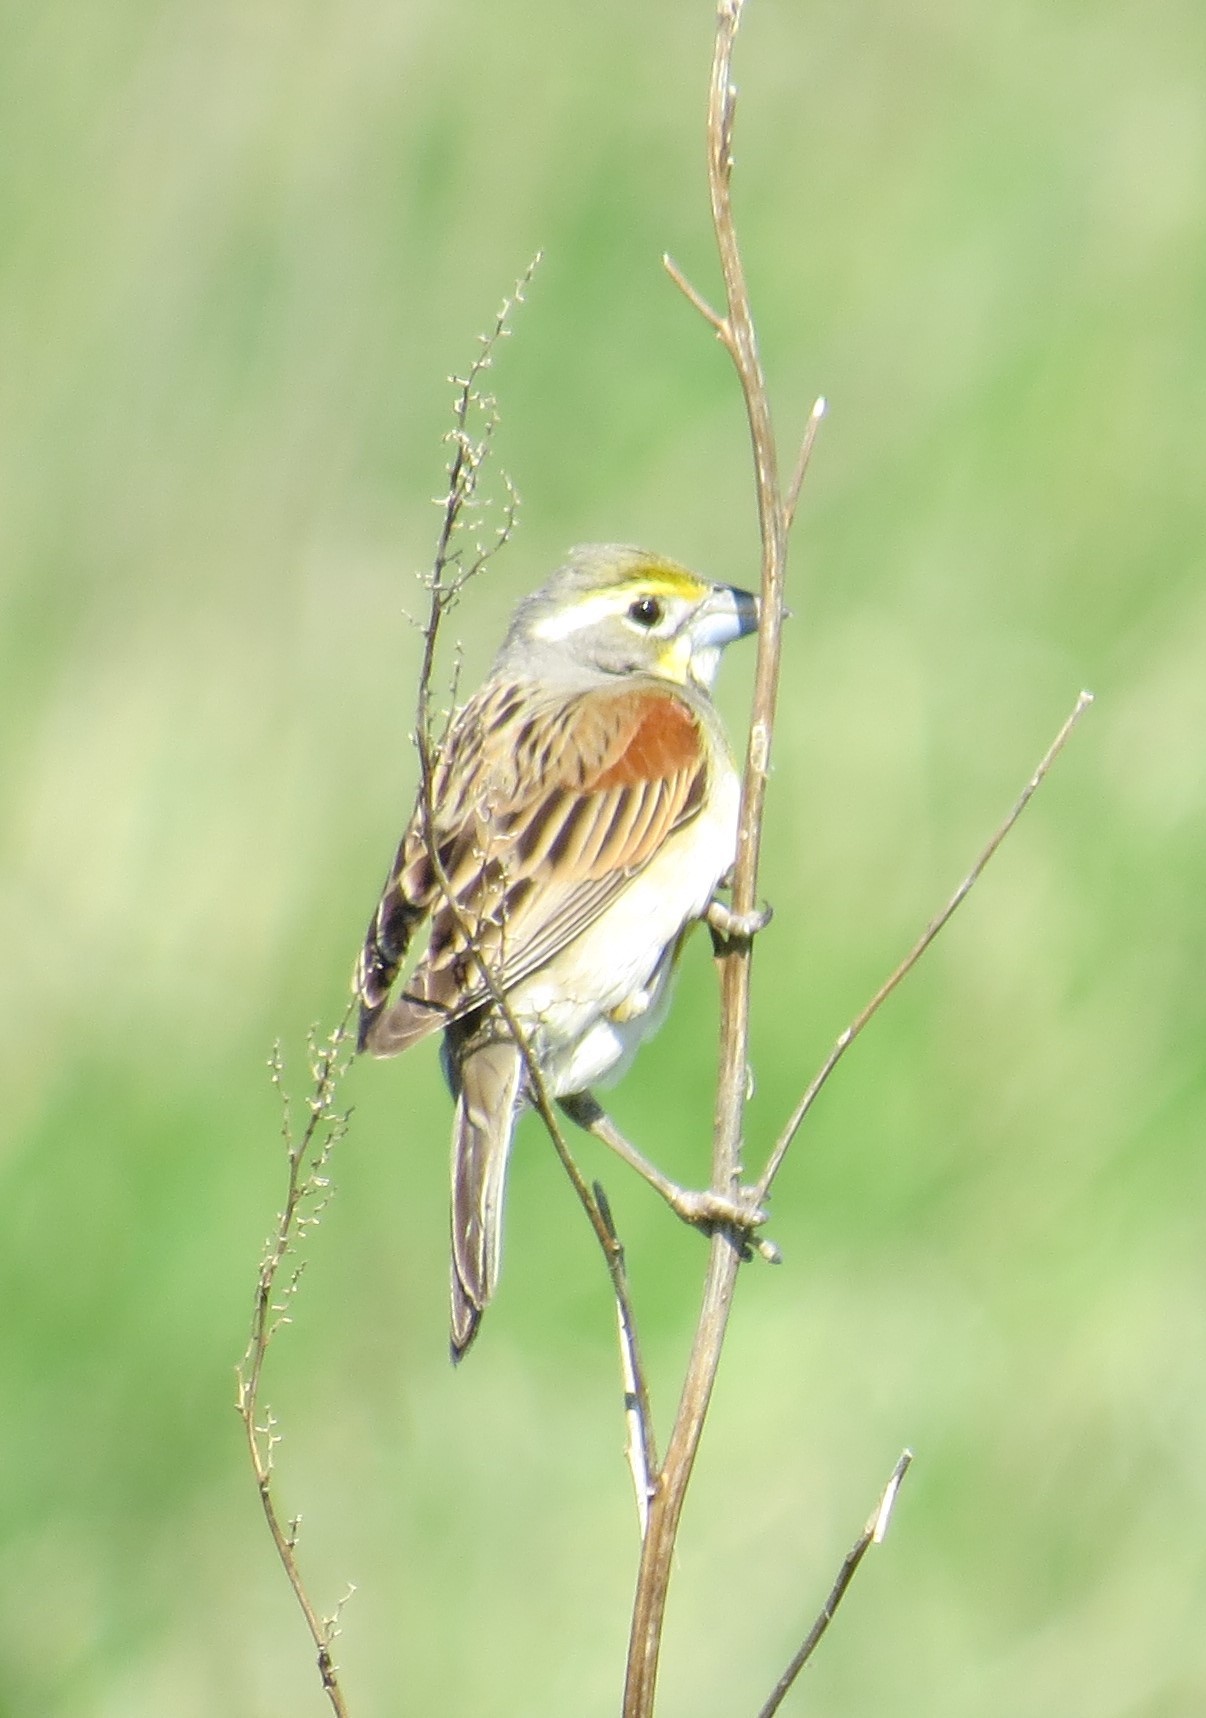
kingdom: Animalia
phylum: Chordata
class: Aves
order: Passeriformes
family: Cardinalidae
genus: Spiza
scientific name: Spiza americana
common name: Dickcissel
